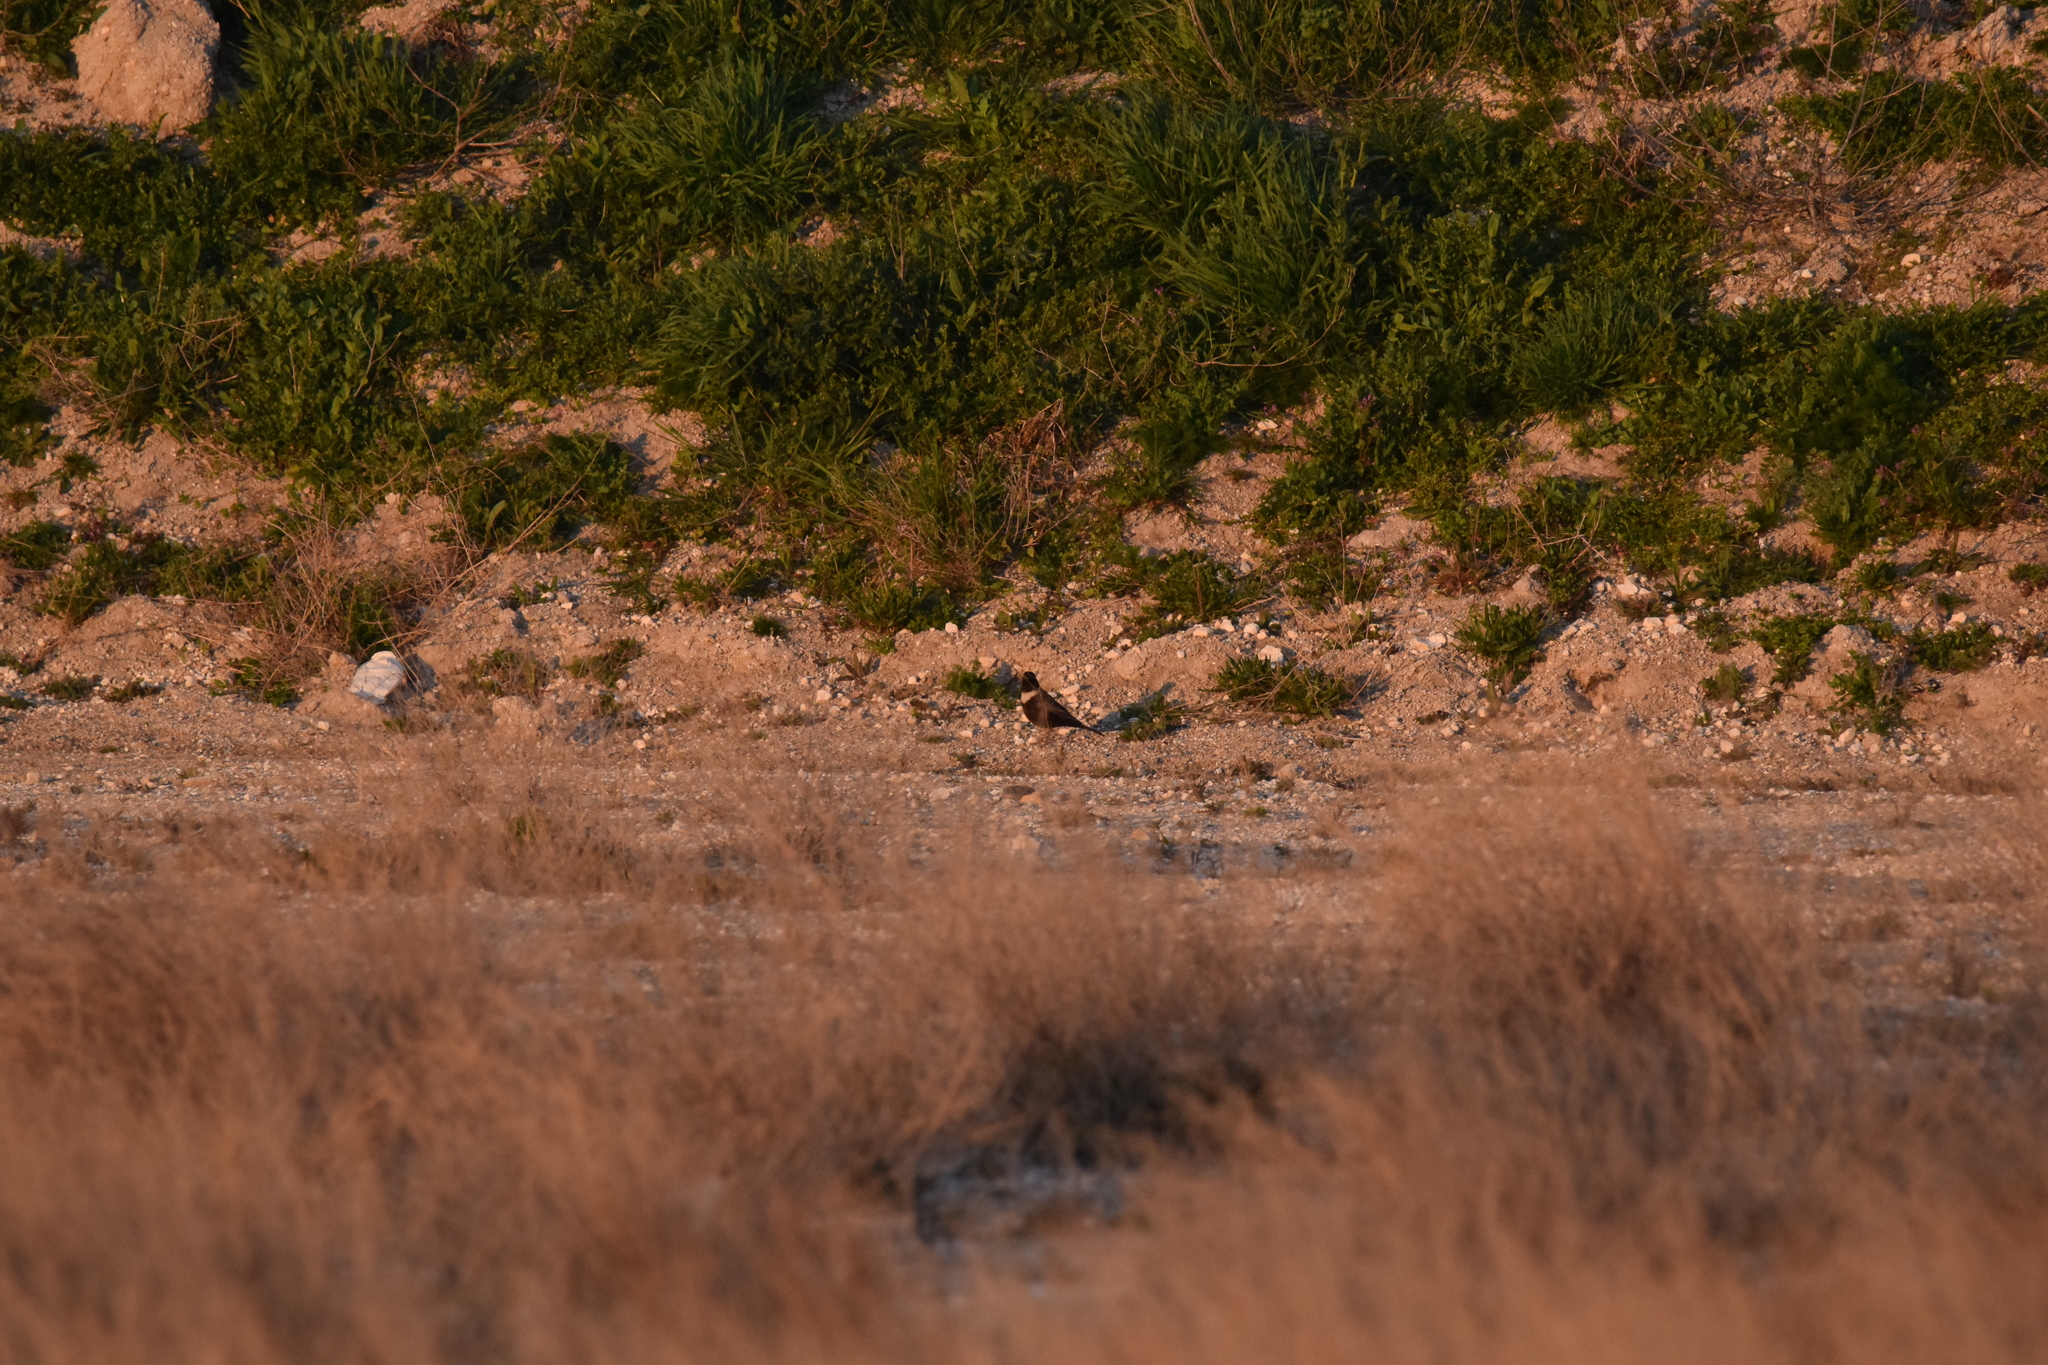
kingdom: Animalia
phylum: Chordata
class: Aves
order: Passeriformes
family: Turdidae
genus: Turdus
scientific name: Turdus torquatus
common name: Ring ouzel
